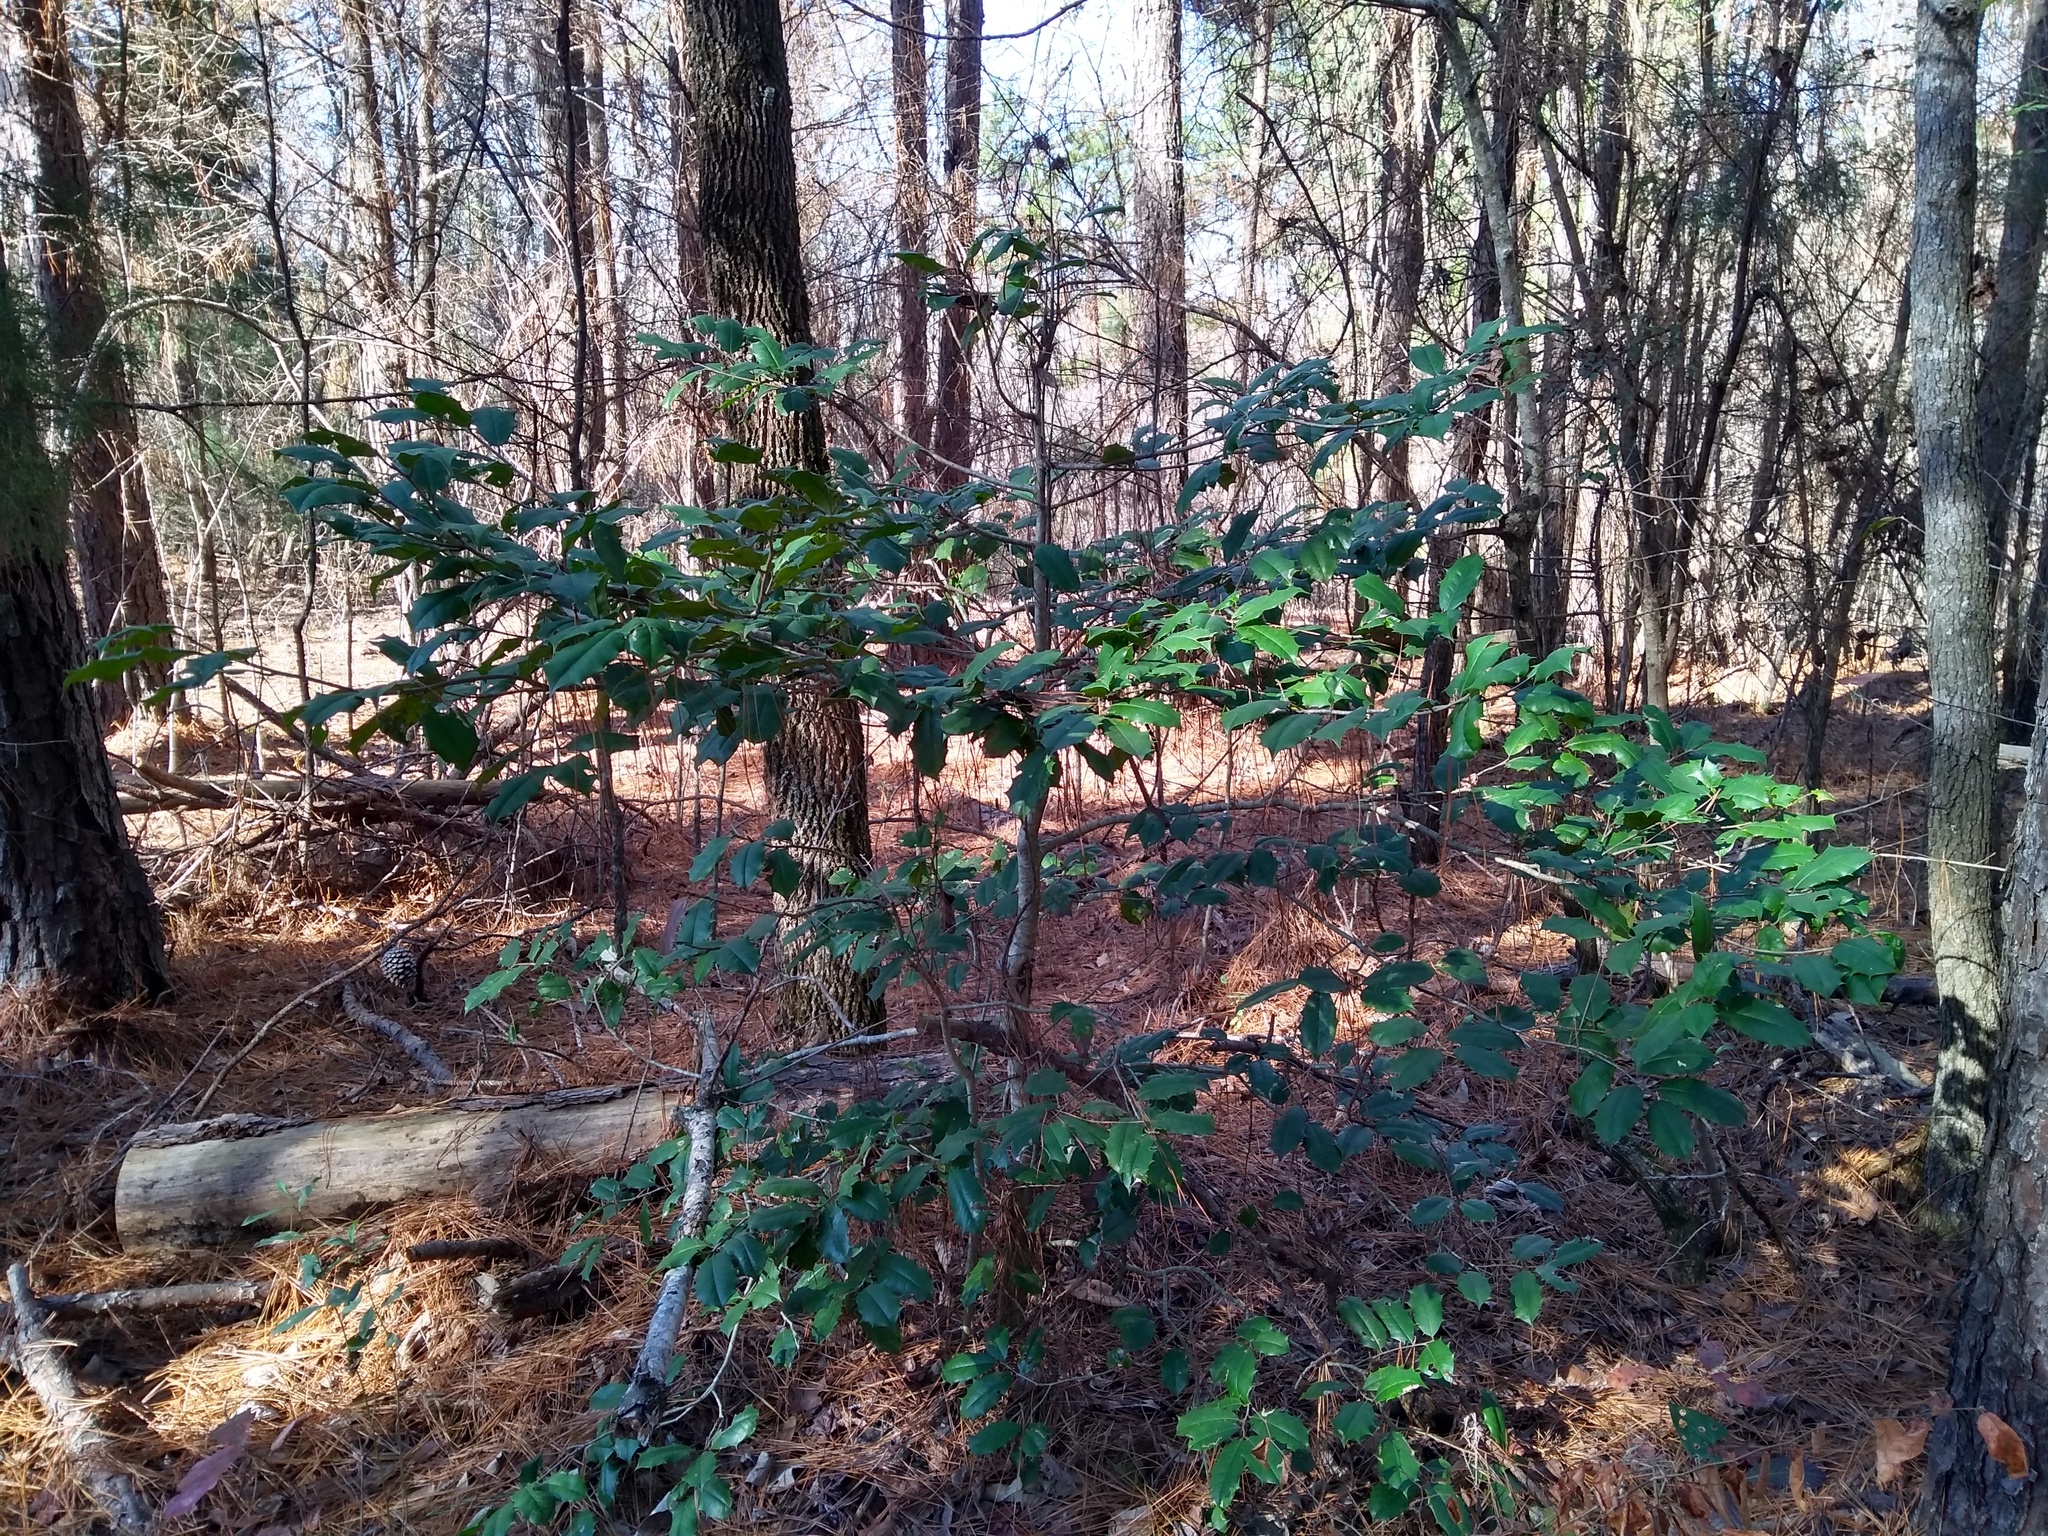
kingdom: Plantae
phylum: Tracheophyta
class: Magnoliopsida
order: Aquifoliales
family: Aquifoliaceae
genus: Ilex
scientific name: Ilex opaca
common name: American holly
